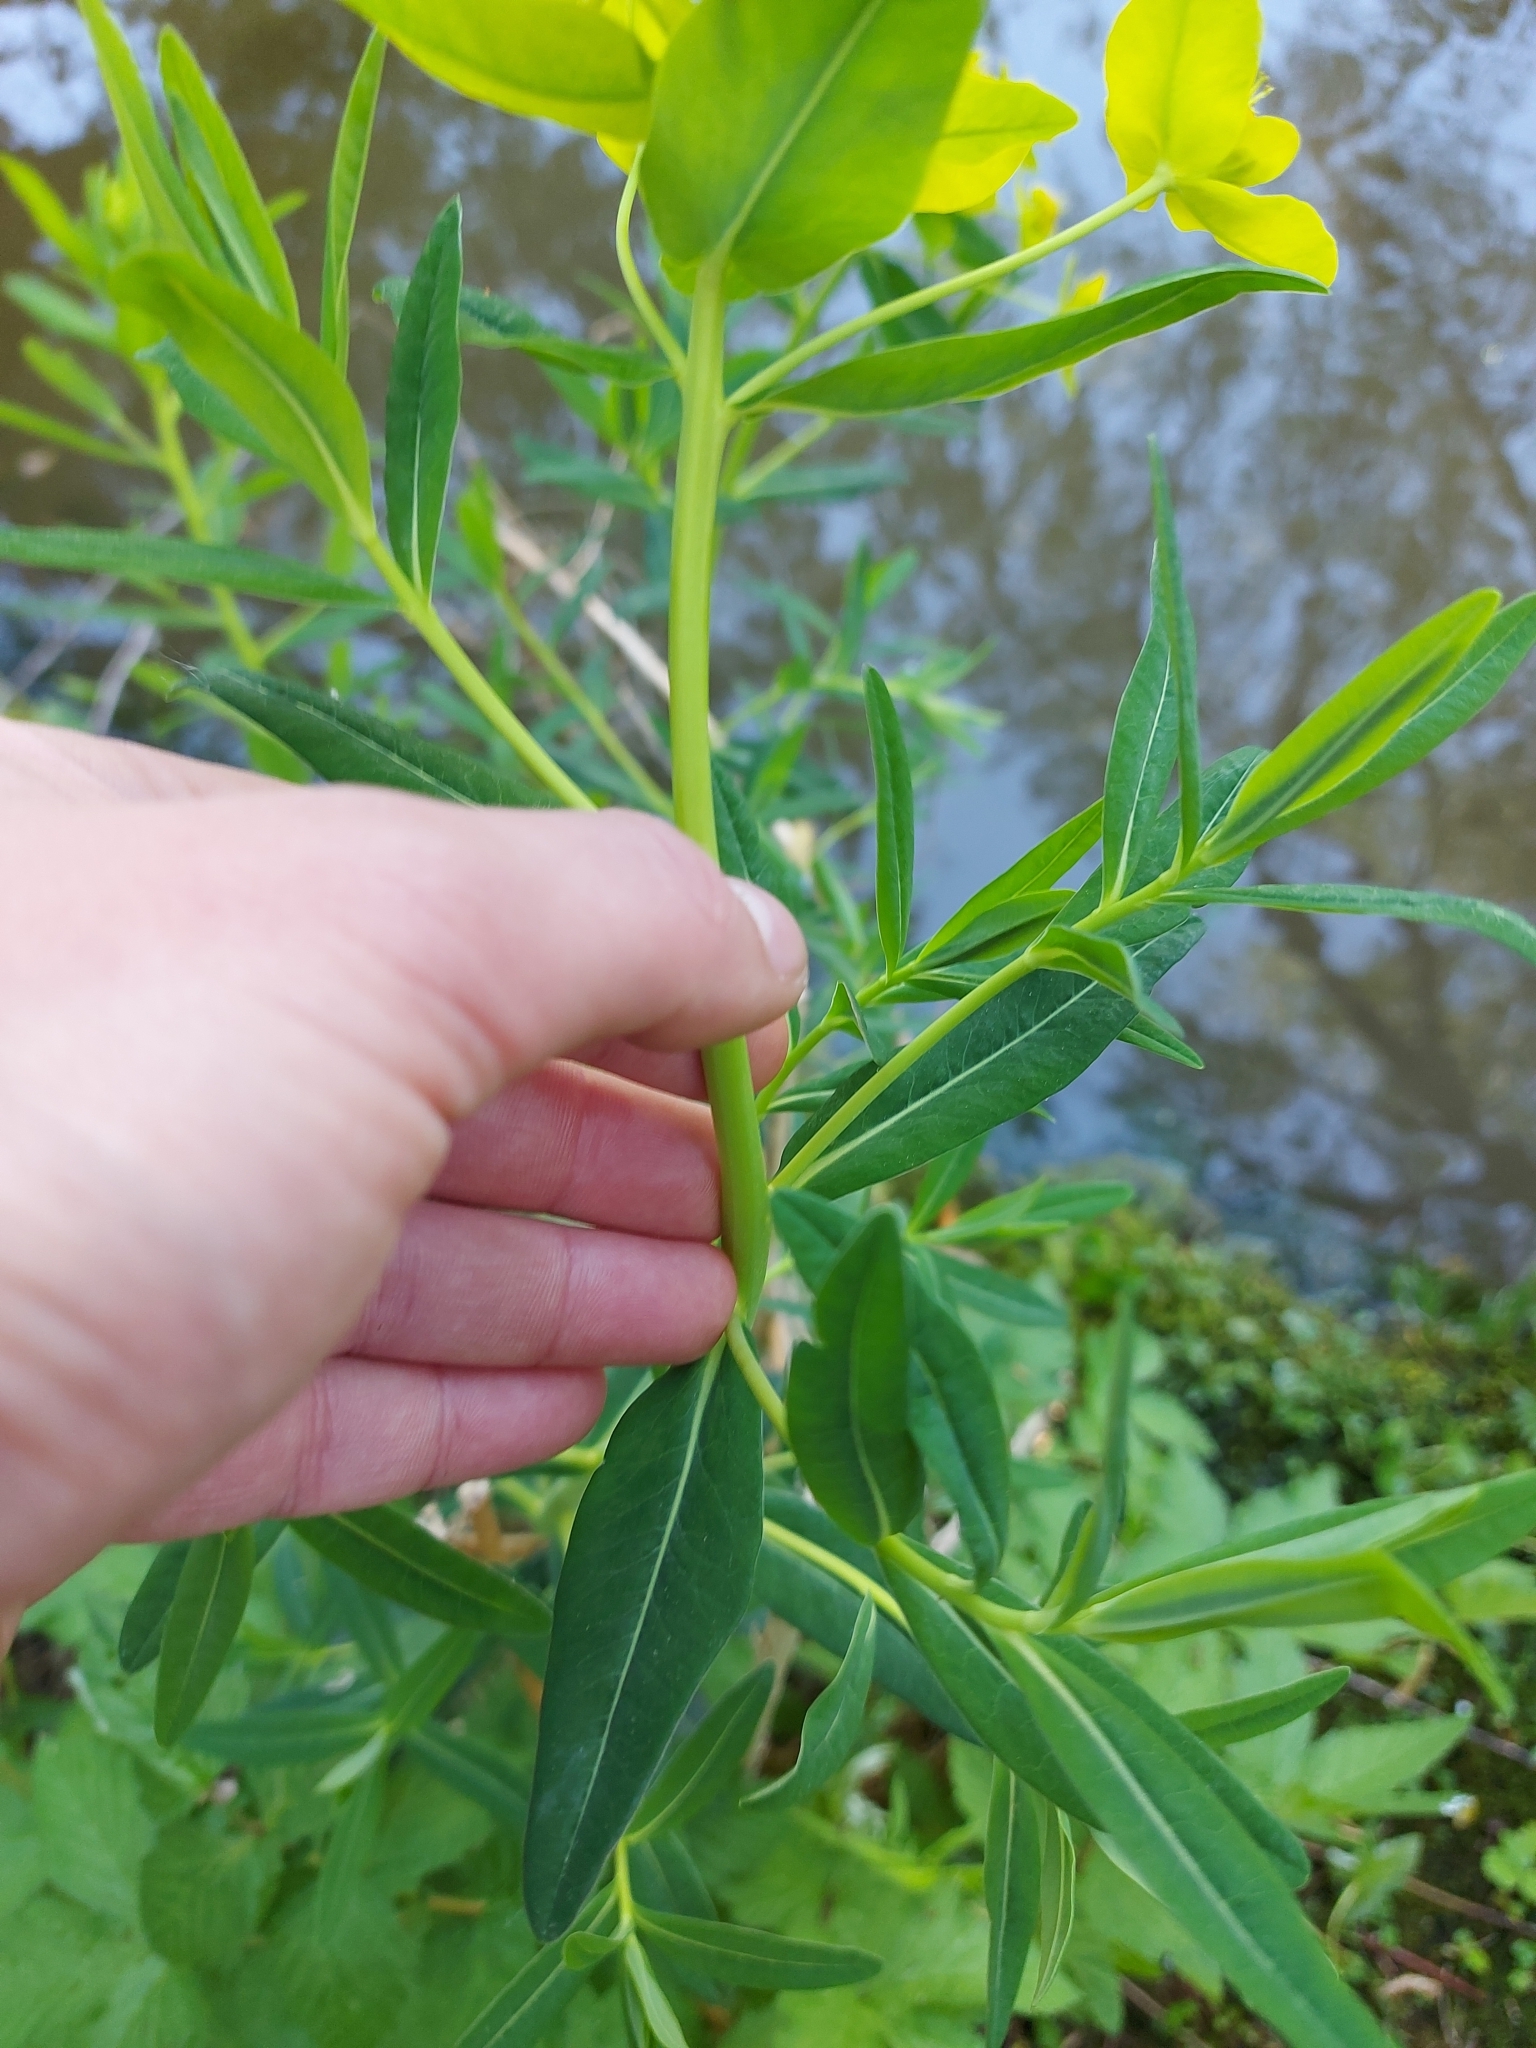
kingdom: Plantae
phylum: Tracheophyta
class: Magnoliopsida
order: Malpighiales
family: Euphorbiaceae
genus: Euphorbia
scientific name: Euphorbia palustris
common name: Marsh spurge
